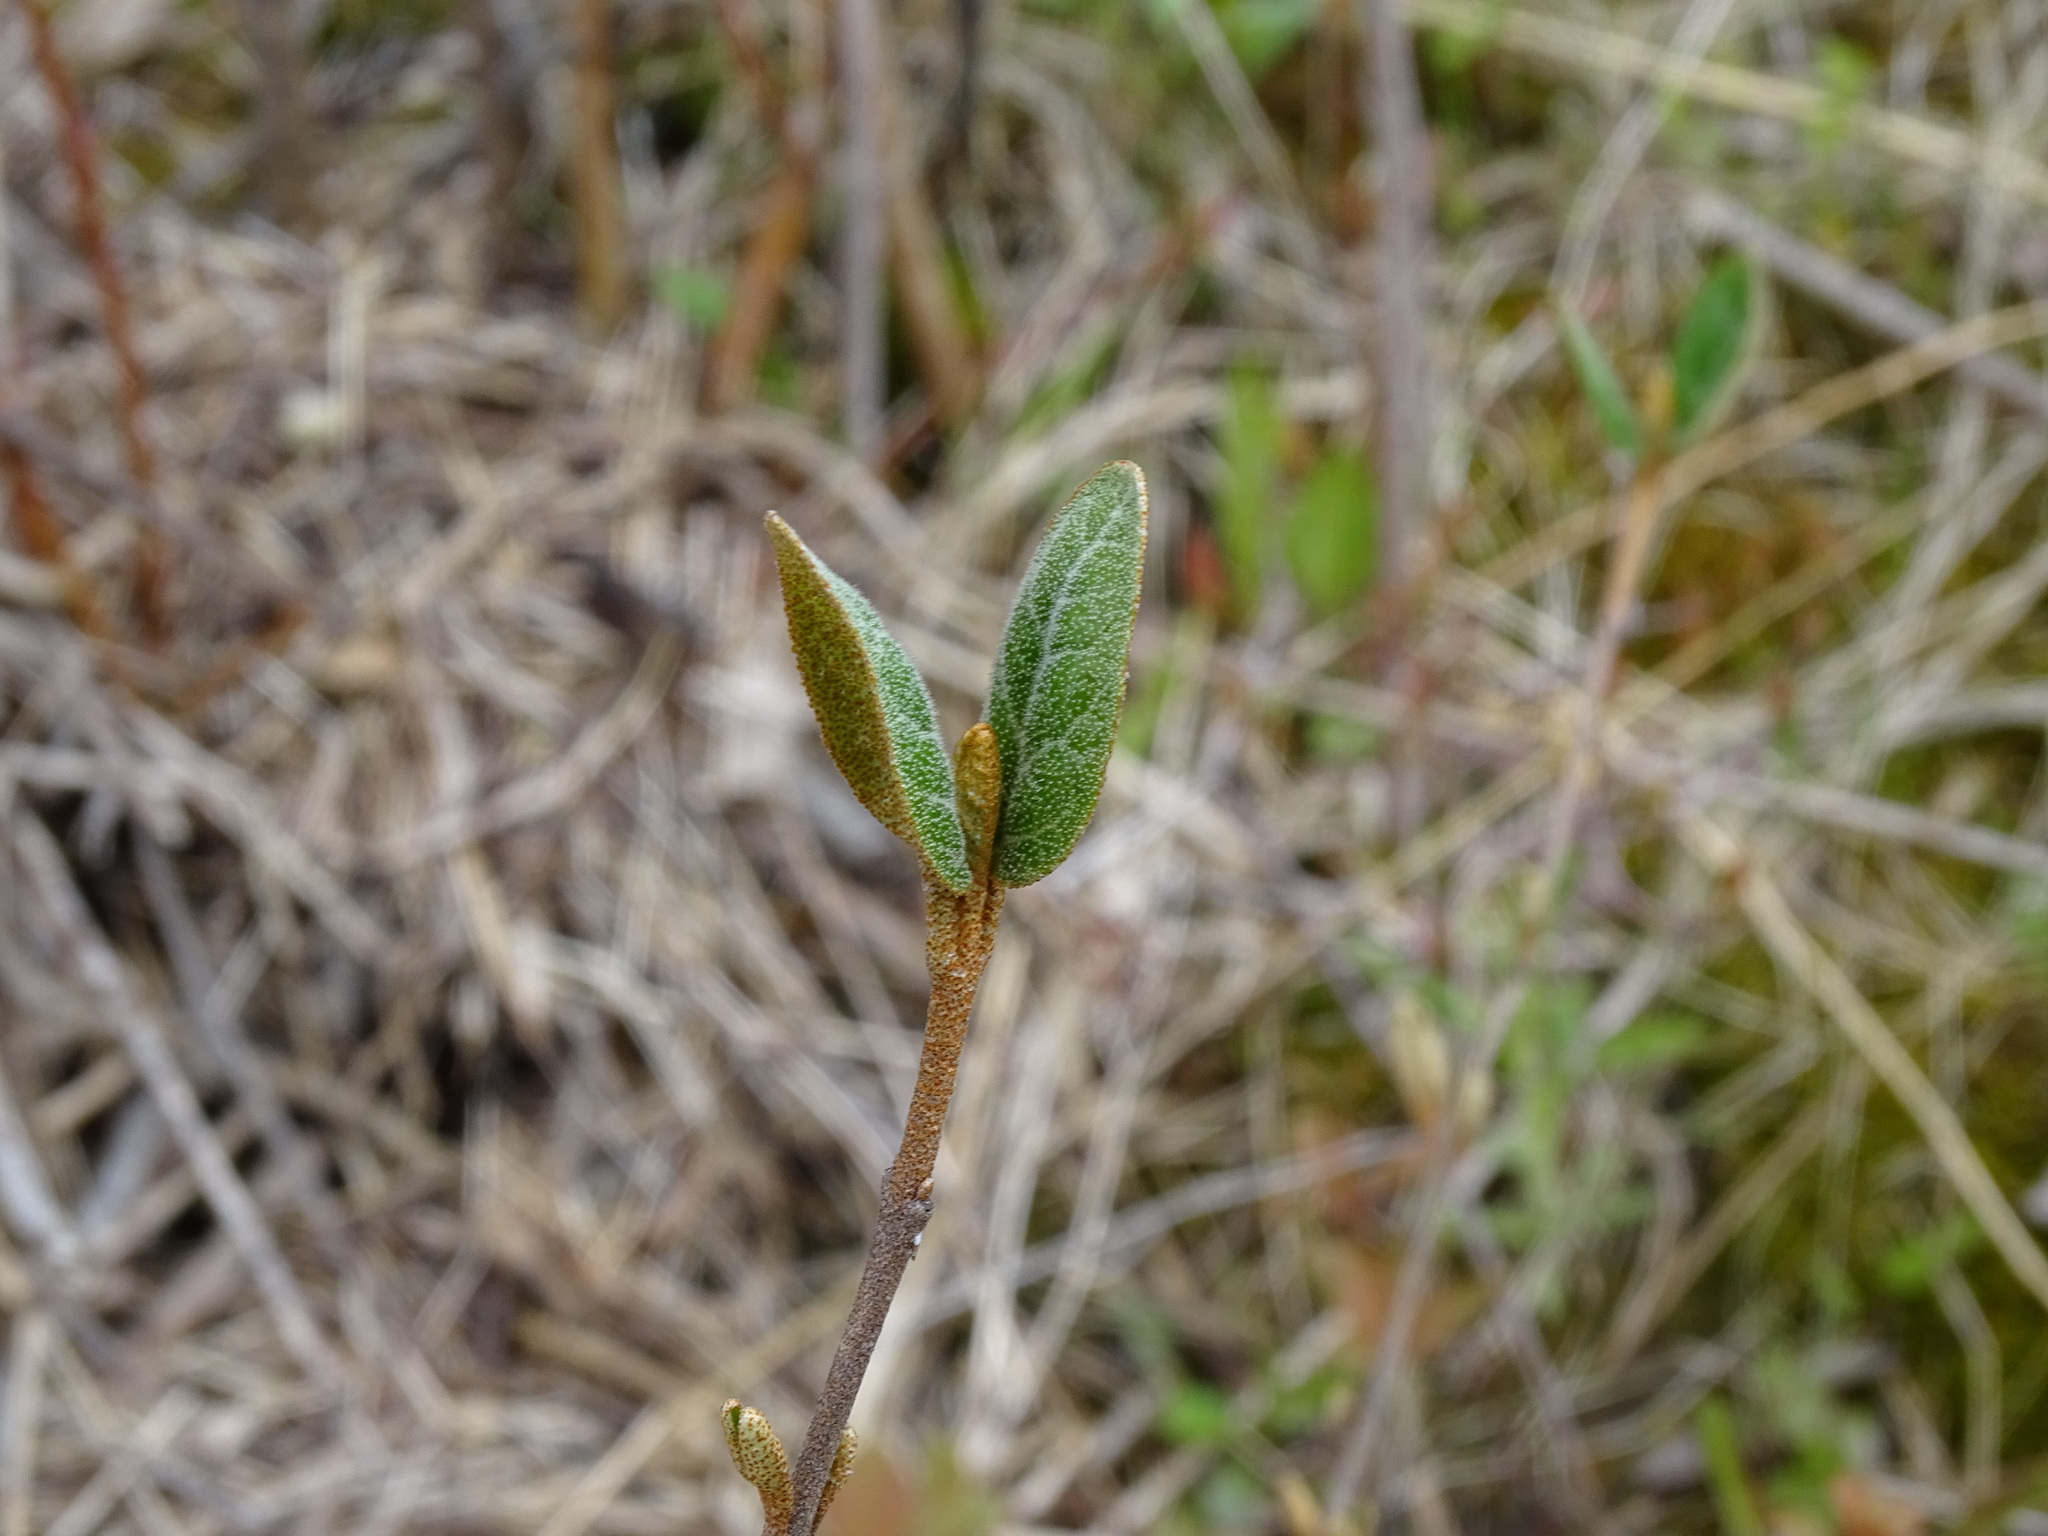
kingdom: Plantae
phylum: Tracheophyta
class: Magnoliopsida
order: Rosales
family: Elaeagnaceae
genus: Shepherdia
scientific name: Shepherdia canadensis
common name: Soapberry
